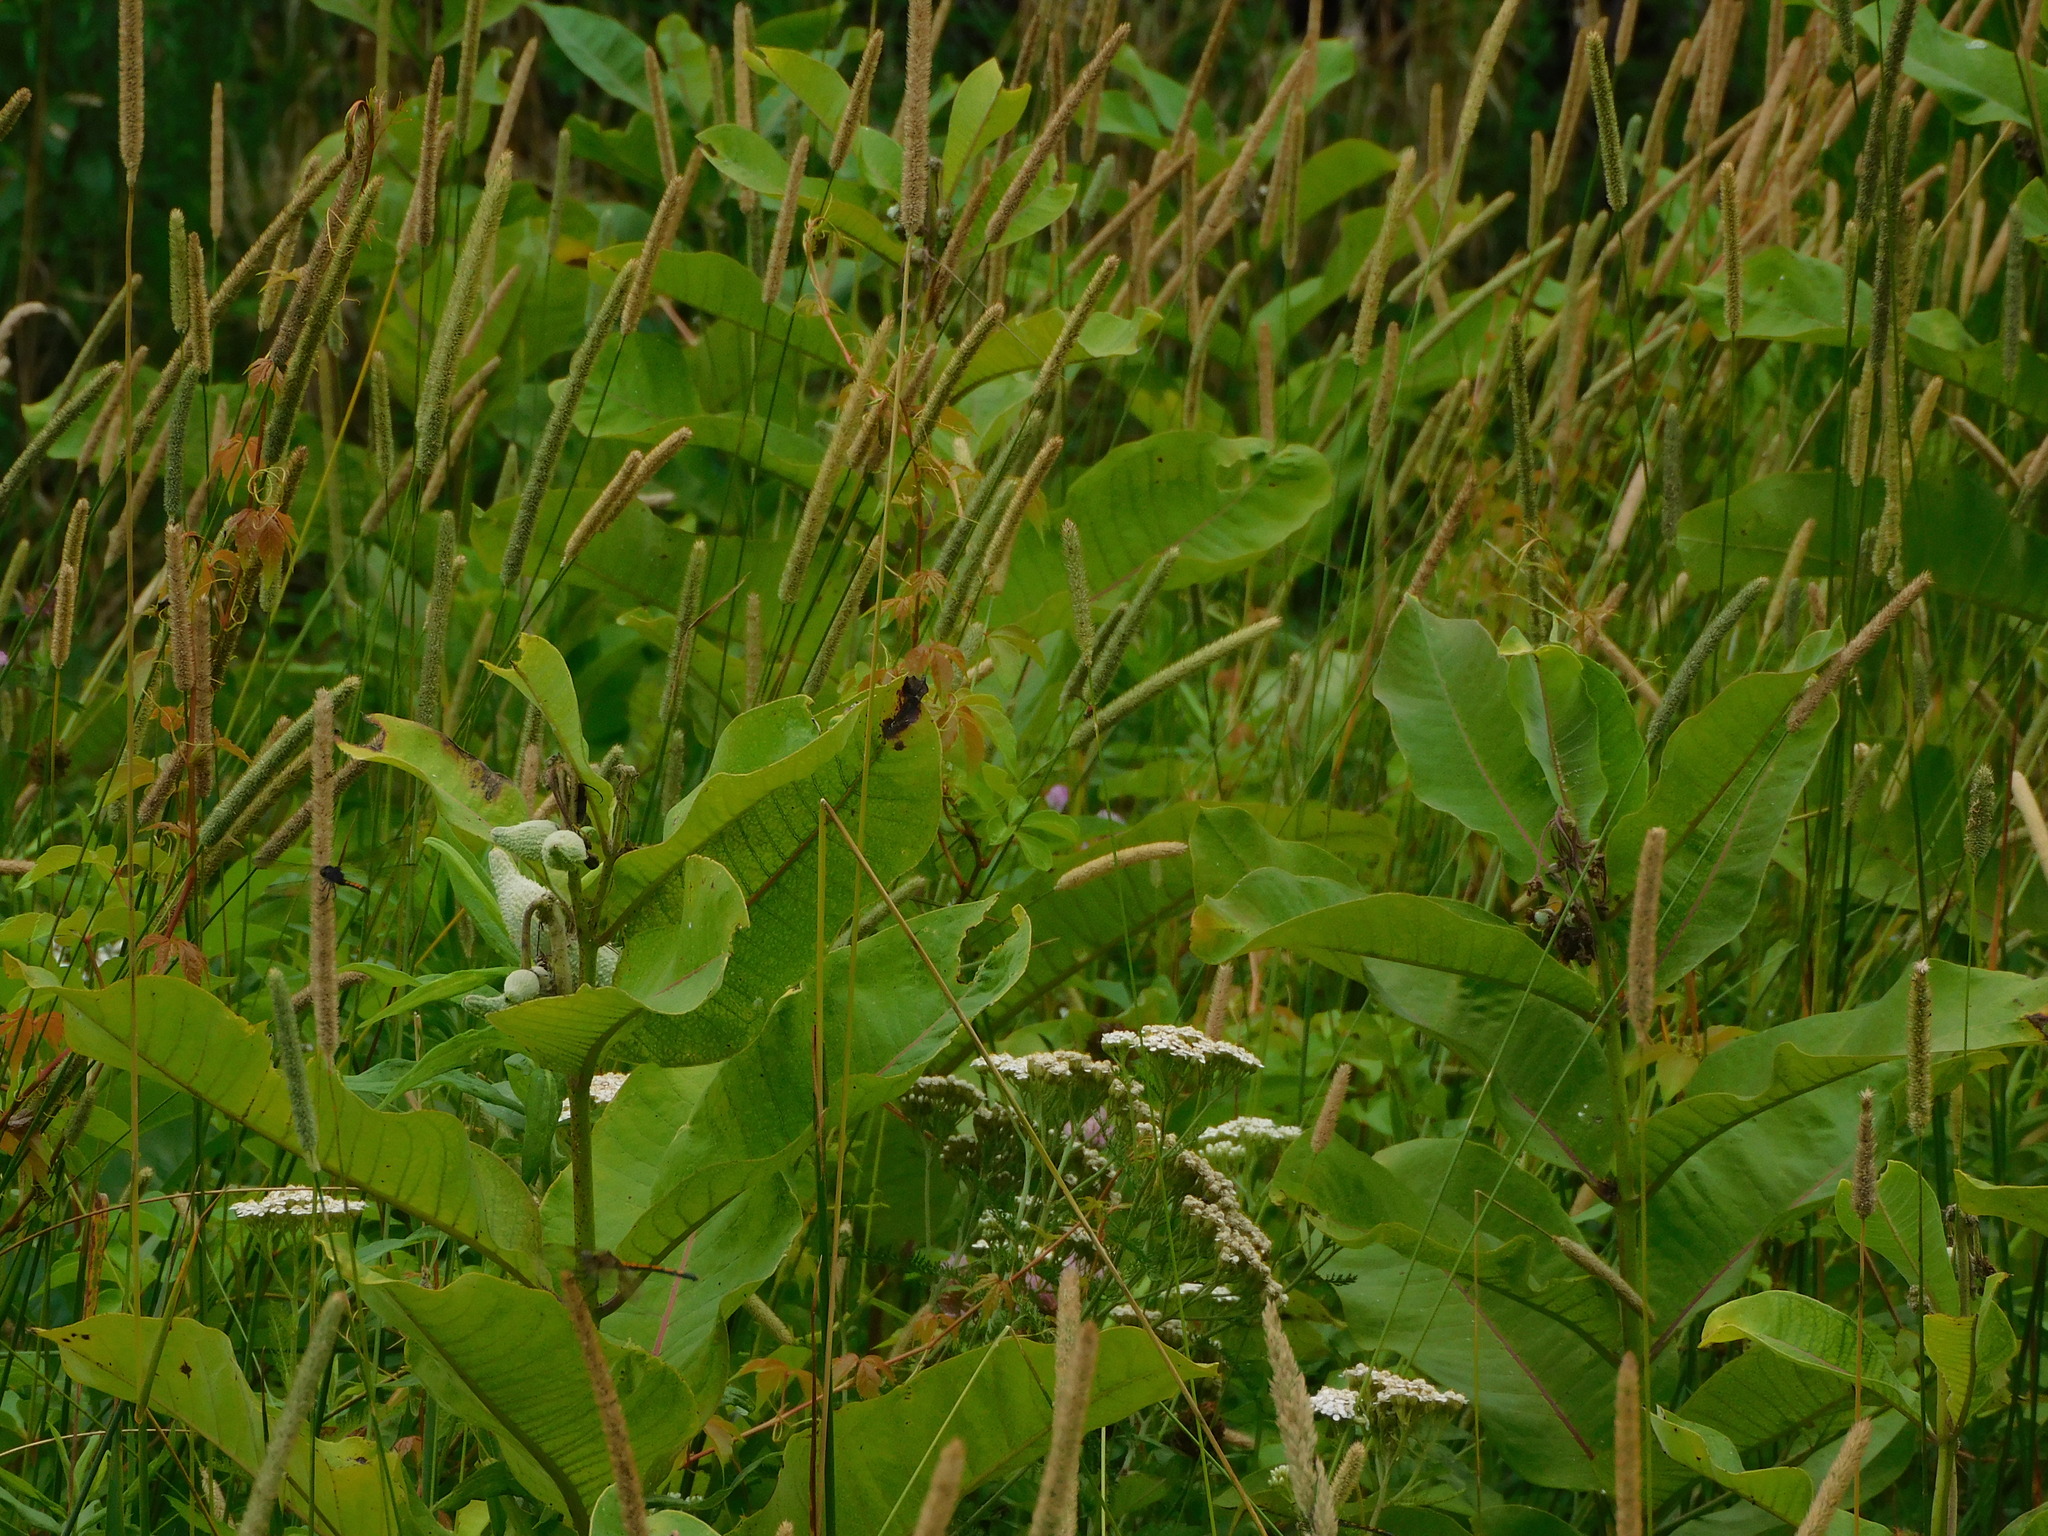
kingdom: Animalia
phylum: Arthropoda
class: Insecta
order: Odonata
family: Libellulidae
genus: Erythrodiplax
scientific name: Erythrodiplax berenice
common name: Seaside dragonlet
